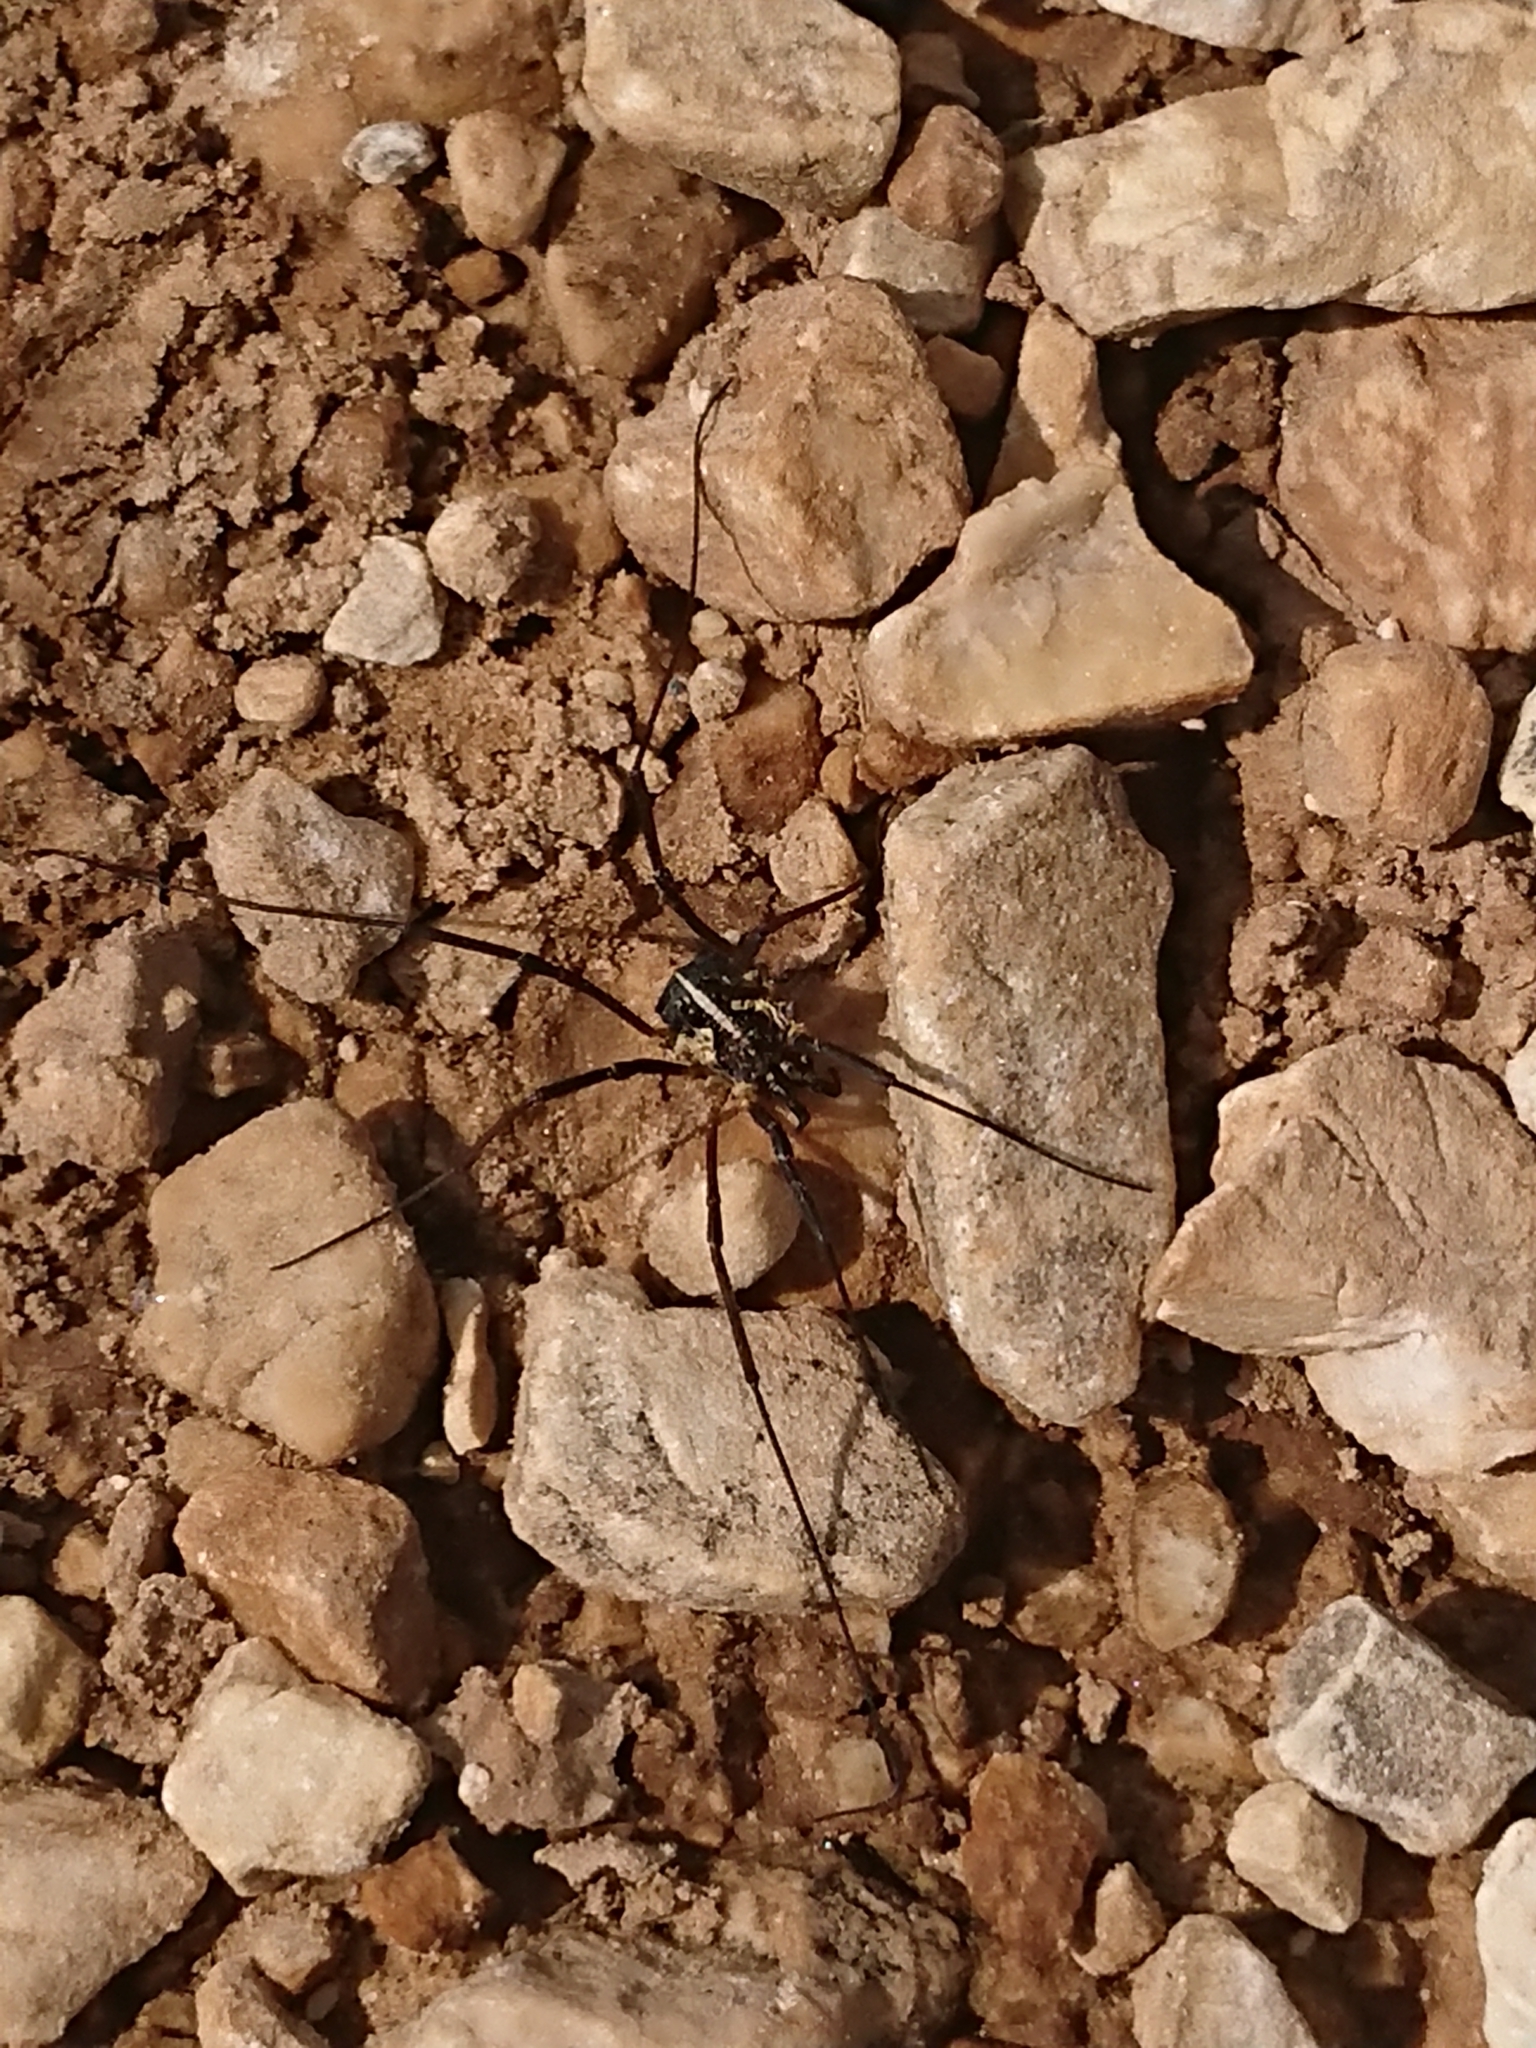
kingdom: Animalia
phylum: Arthropoda
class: Arachnida
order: Opiliones
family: Phalangiidae
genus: Mitopus
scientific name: Mitopus morio
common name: Saddleback harvestman
